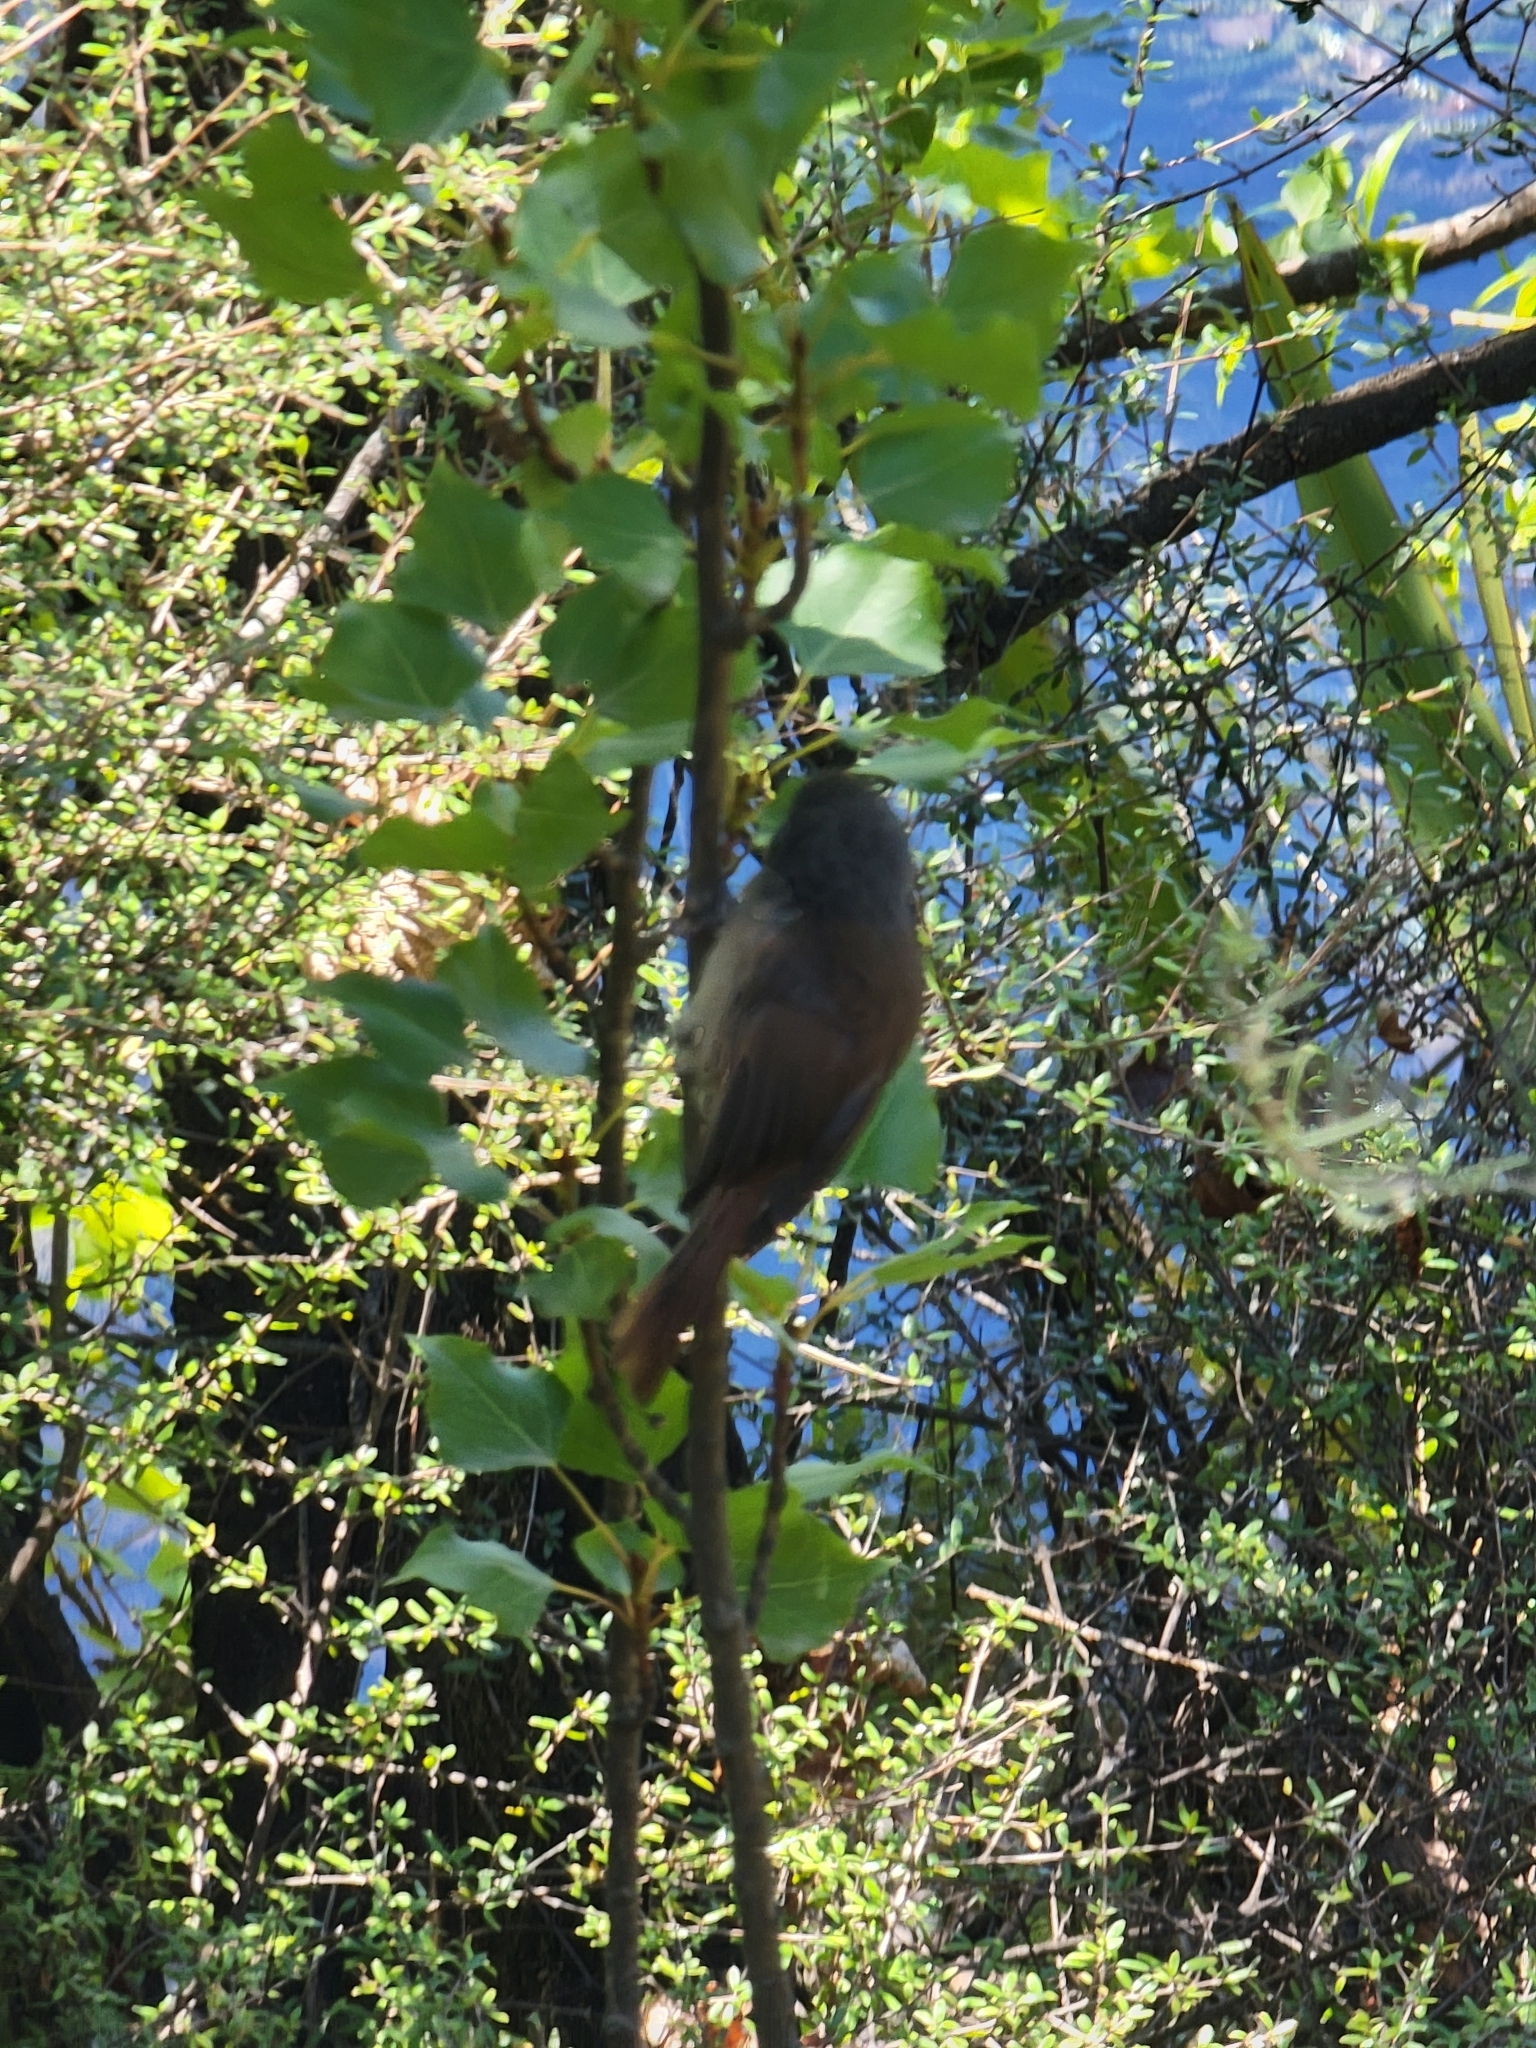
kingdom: Animalia
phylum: Chordata
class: Aves
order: Passeriformes
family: Acanthizidae
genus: Finschia
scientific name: Finschia novaeseelandiae
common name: Pipipi
